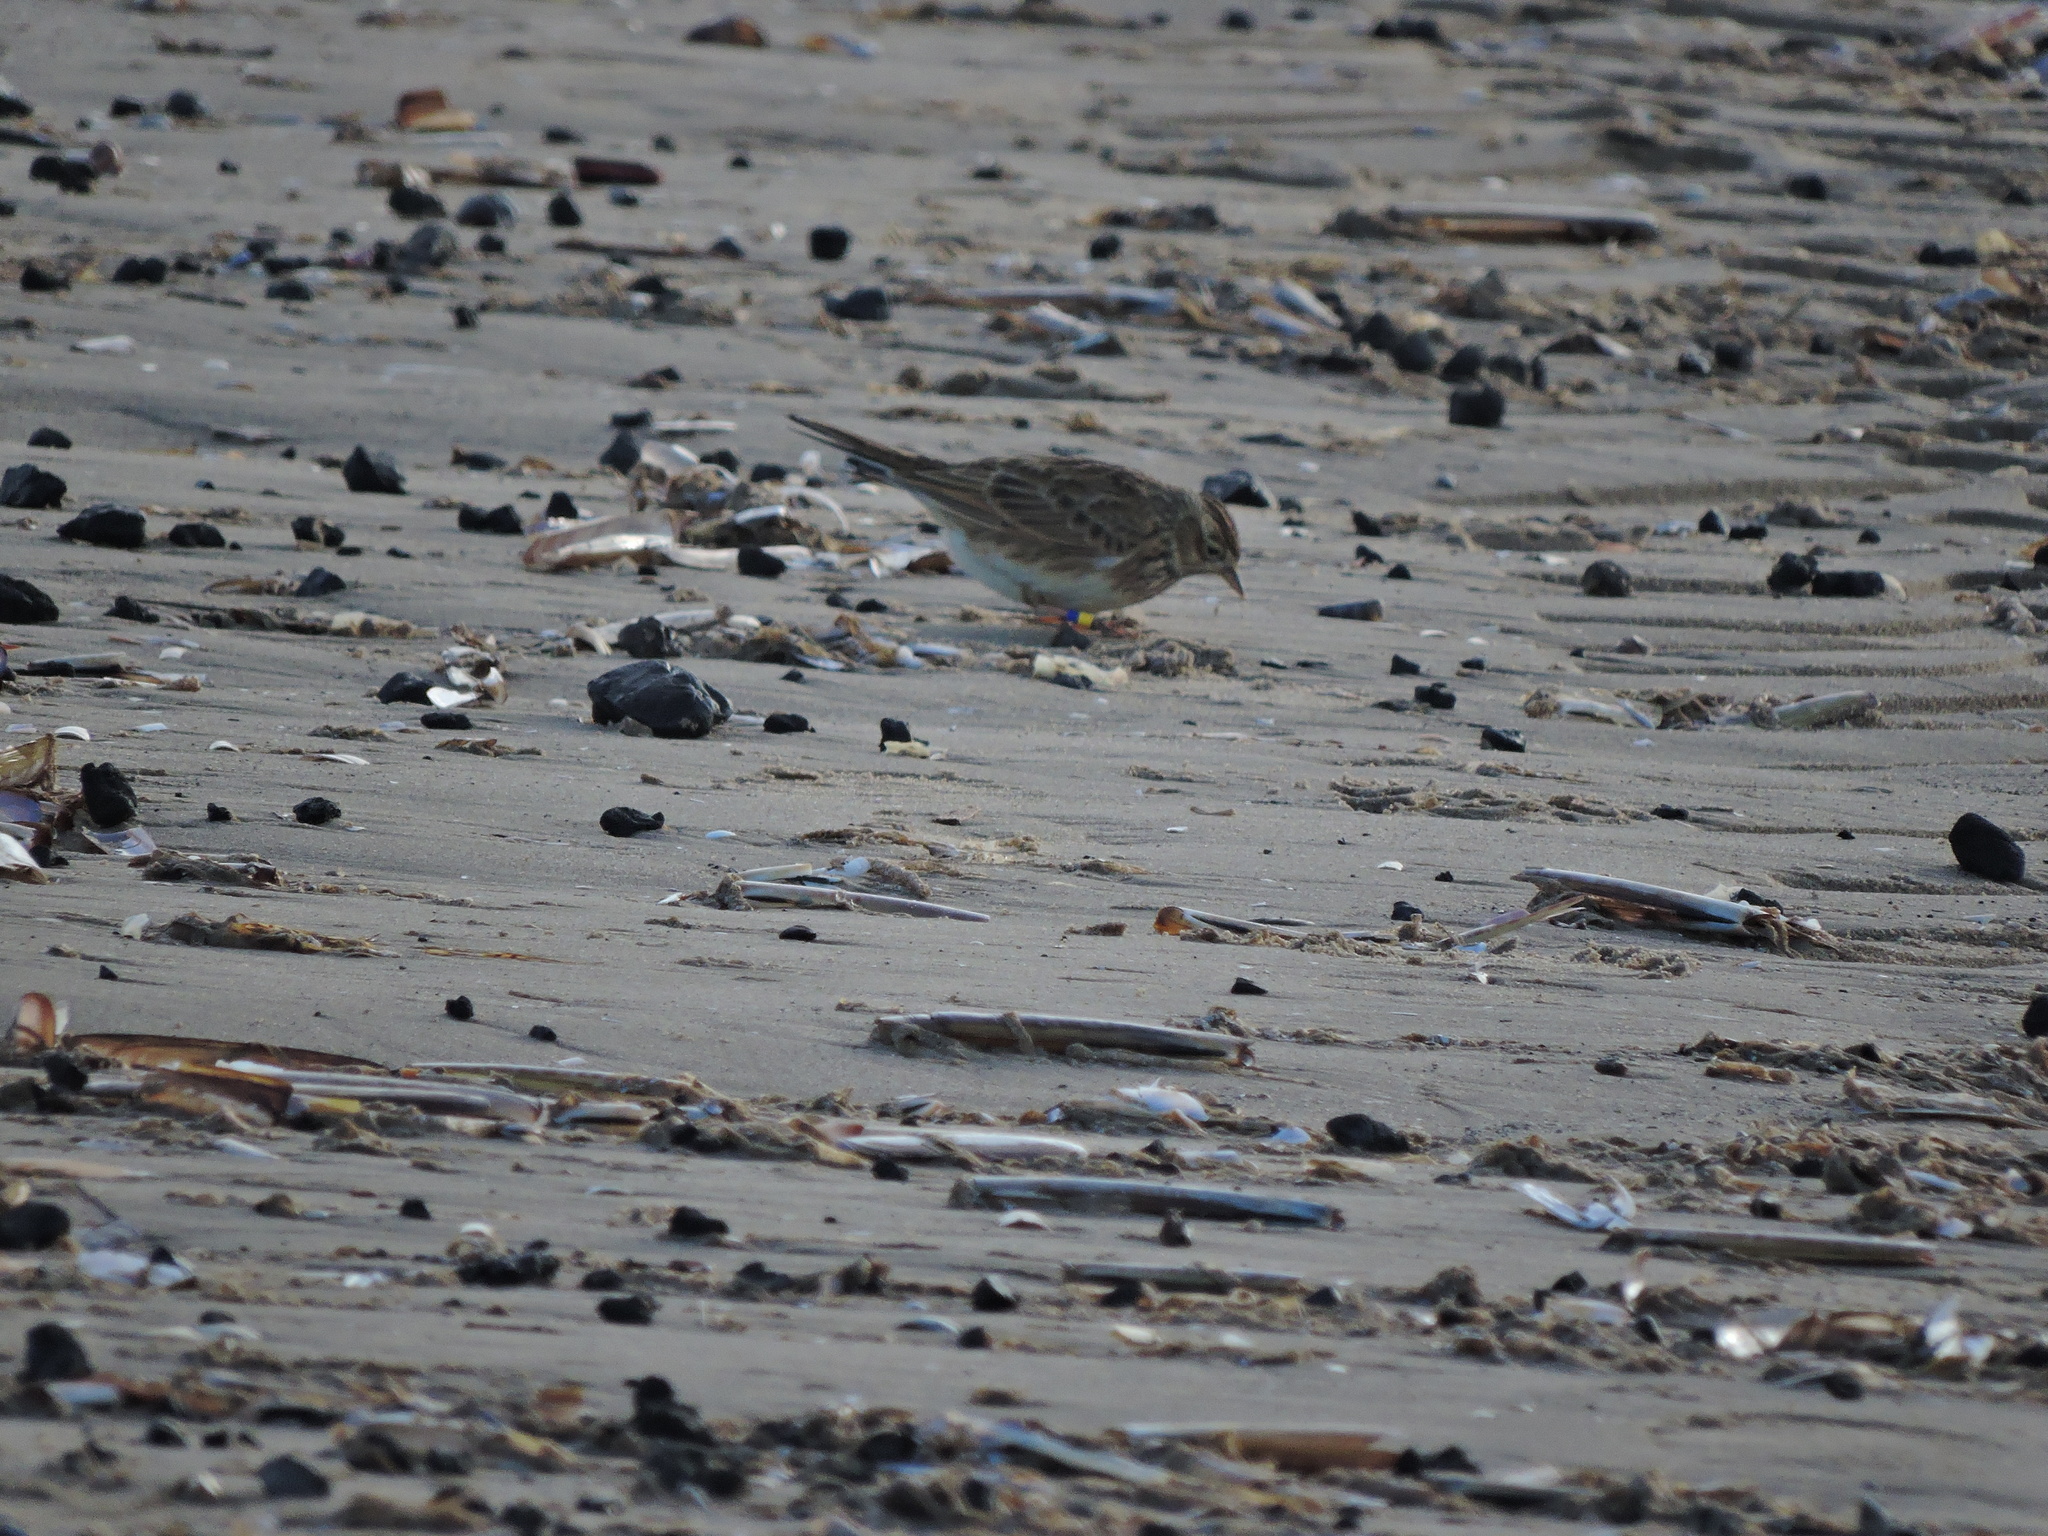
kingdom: Animalia
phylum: Chordata
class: Aves
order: Passeriformes
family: Alaudidae
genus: Alauda
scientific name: Alauda arvensis
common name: Eurasian skylark
